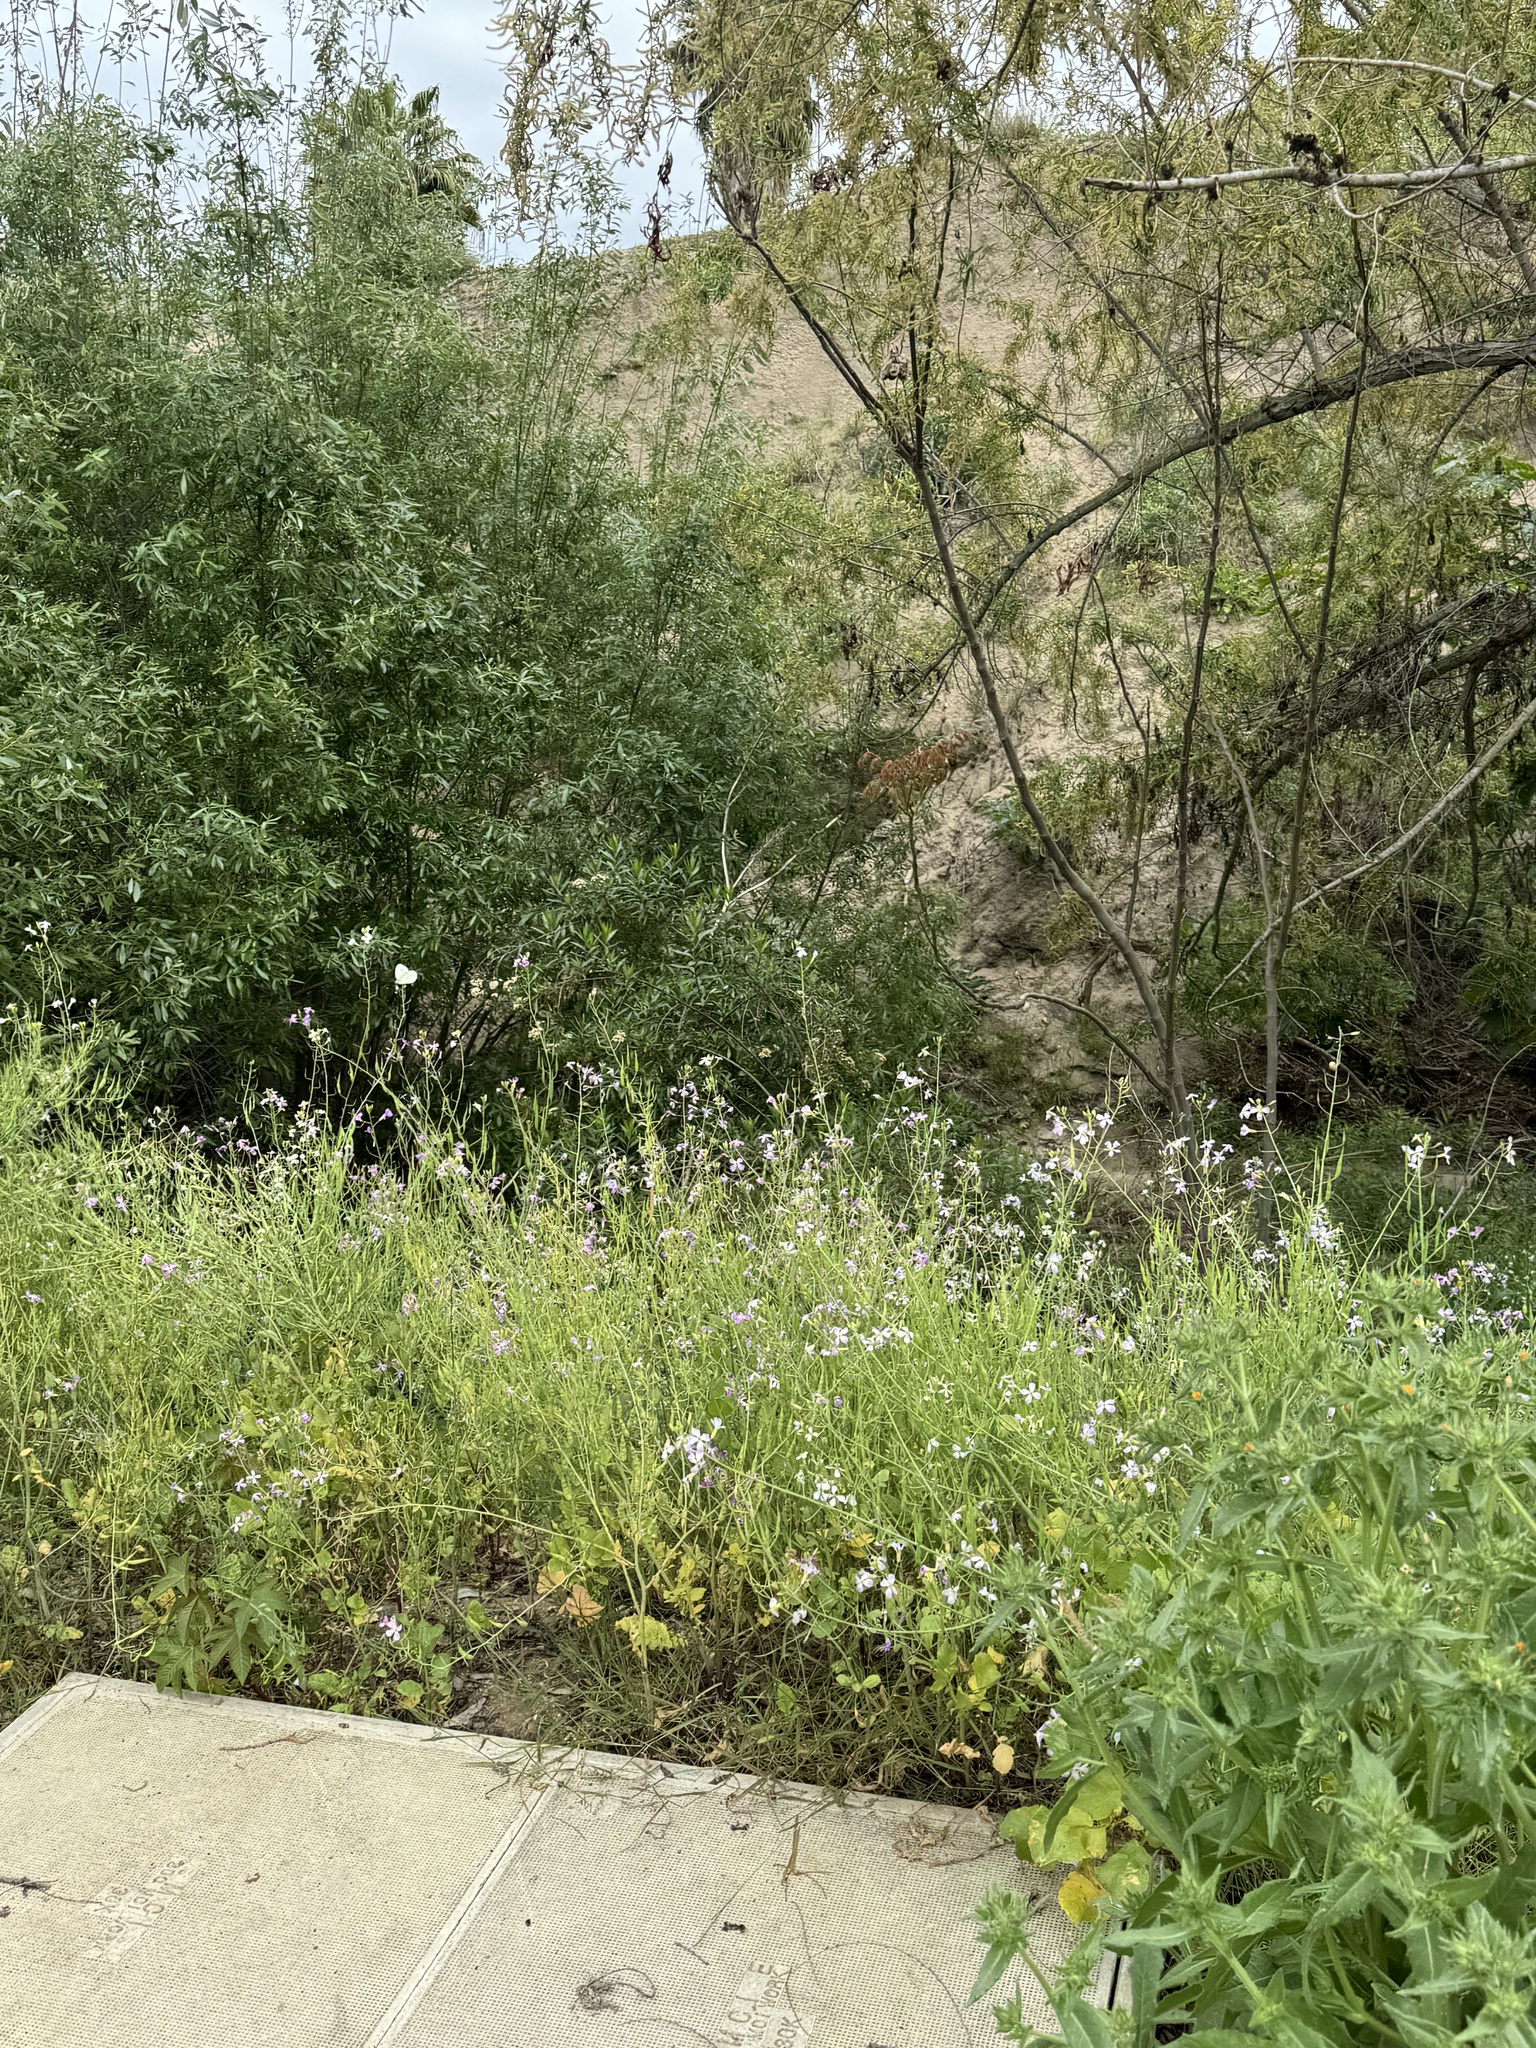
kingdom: Animalia
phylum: Arthropoda
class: Insecta
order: Lepidoptera
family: Pieridae
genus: Pieris
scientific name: Pieris rapae
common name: Small white
